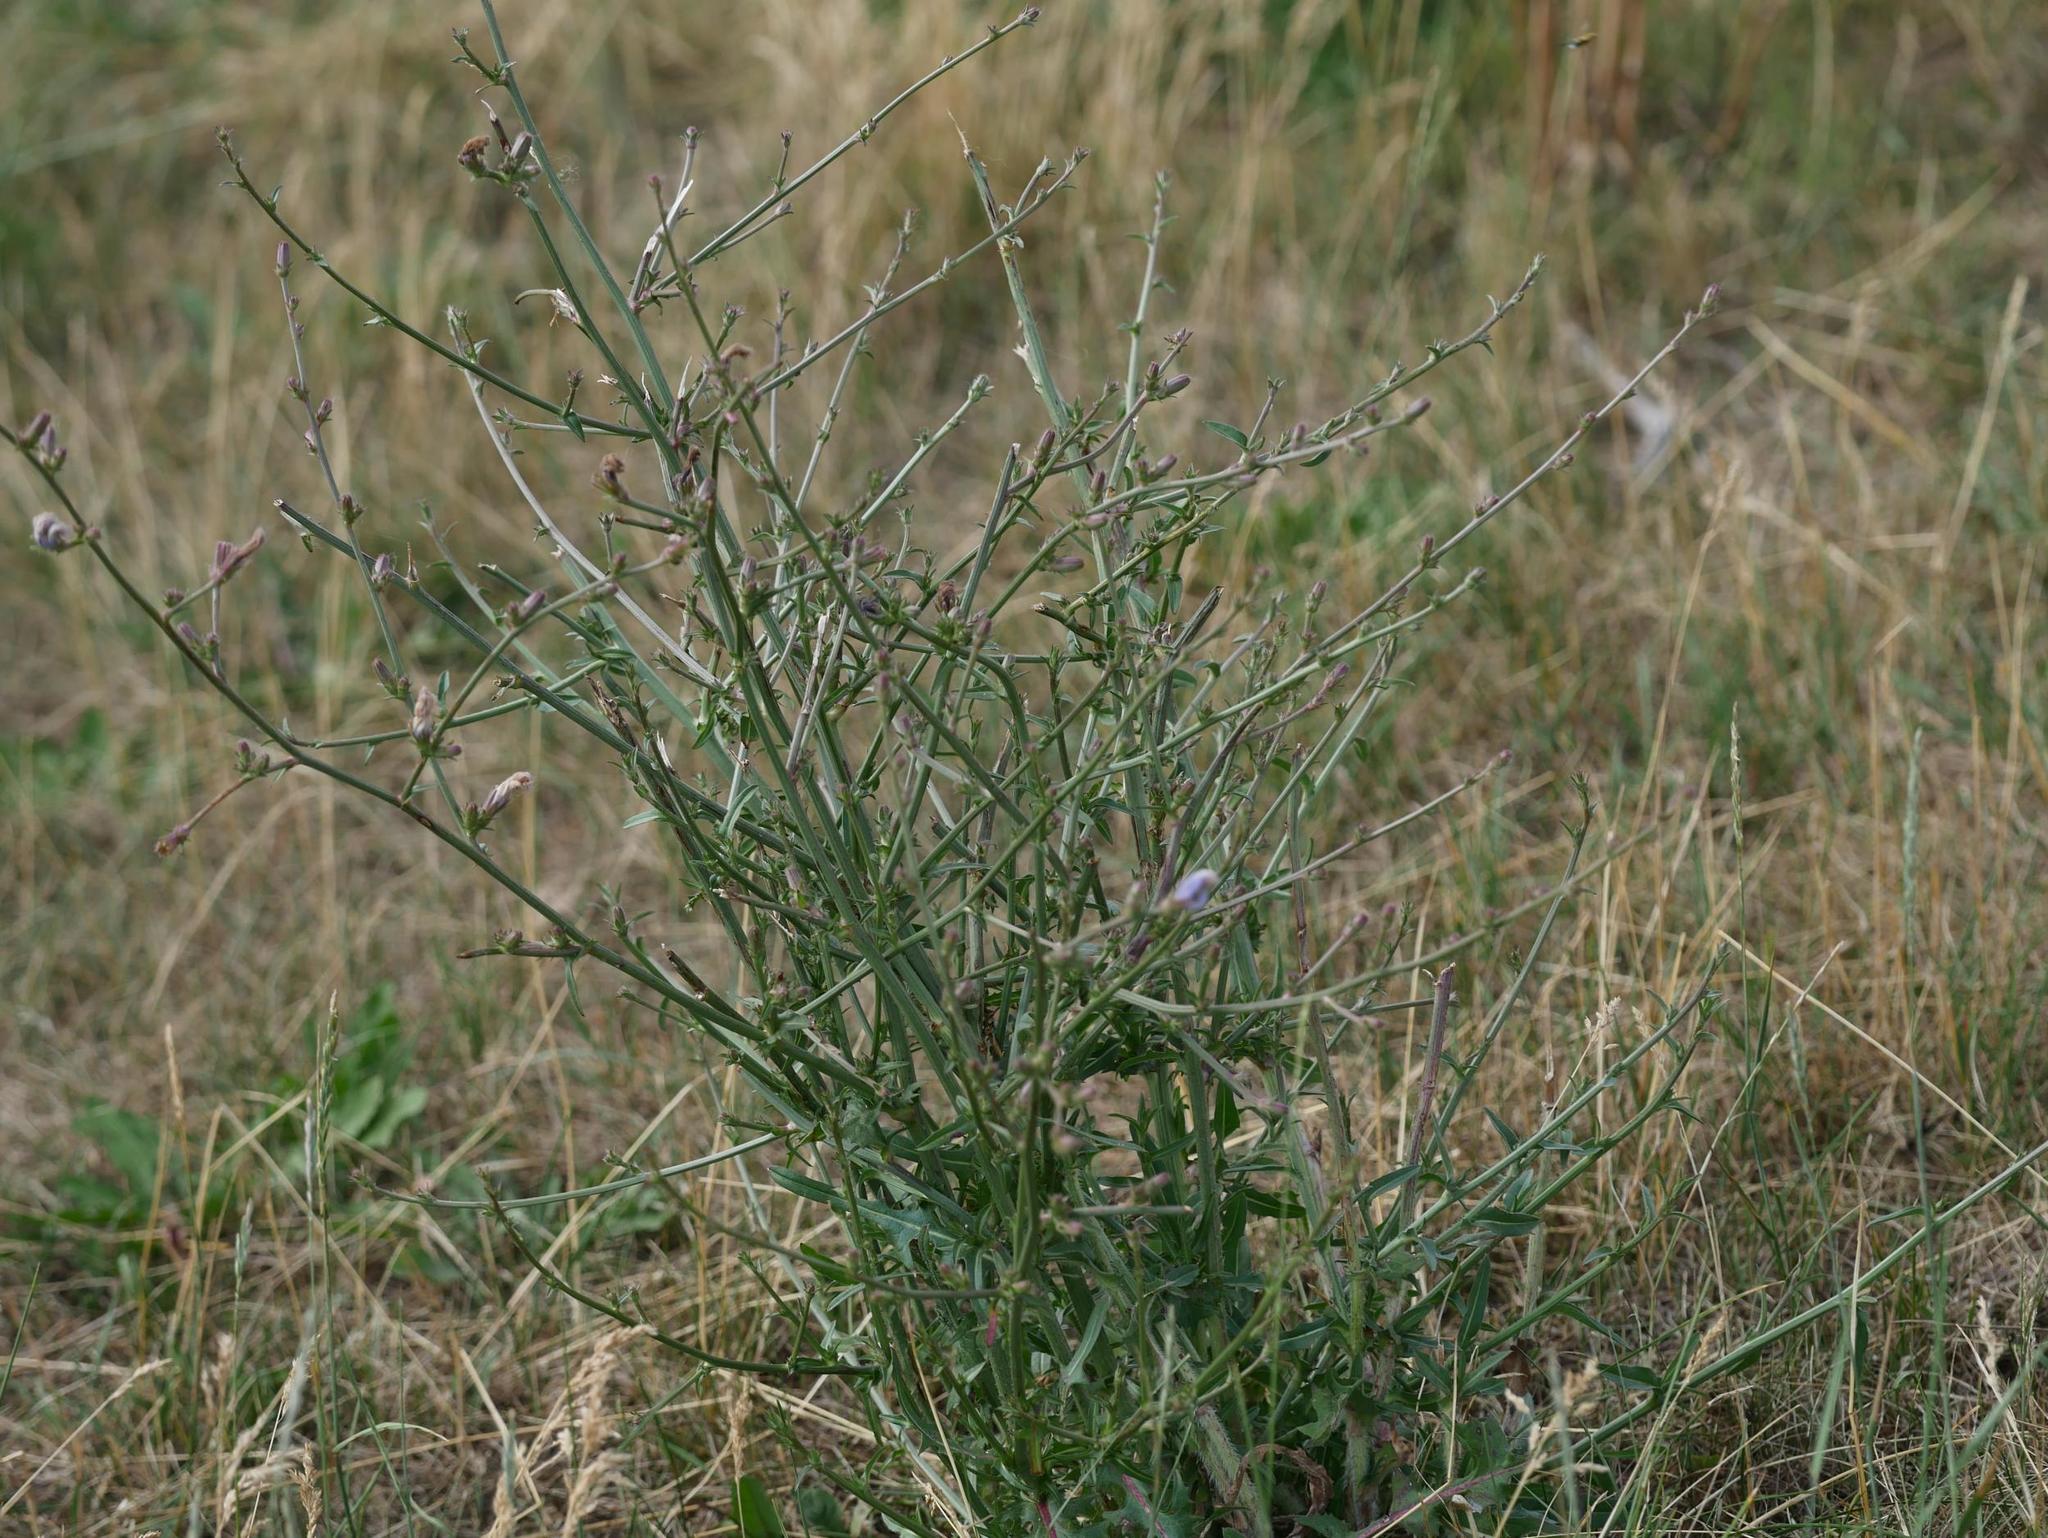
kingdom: Plantae
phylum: Tracheophyta
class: Magnoliopsida
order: Asterales
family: Asteraceae
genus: Cichorium
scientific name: Cichorium intybus
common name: Chicory
